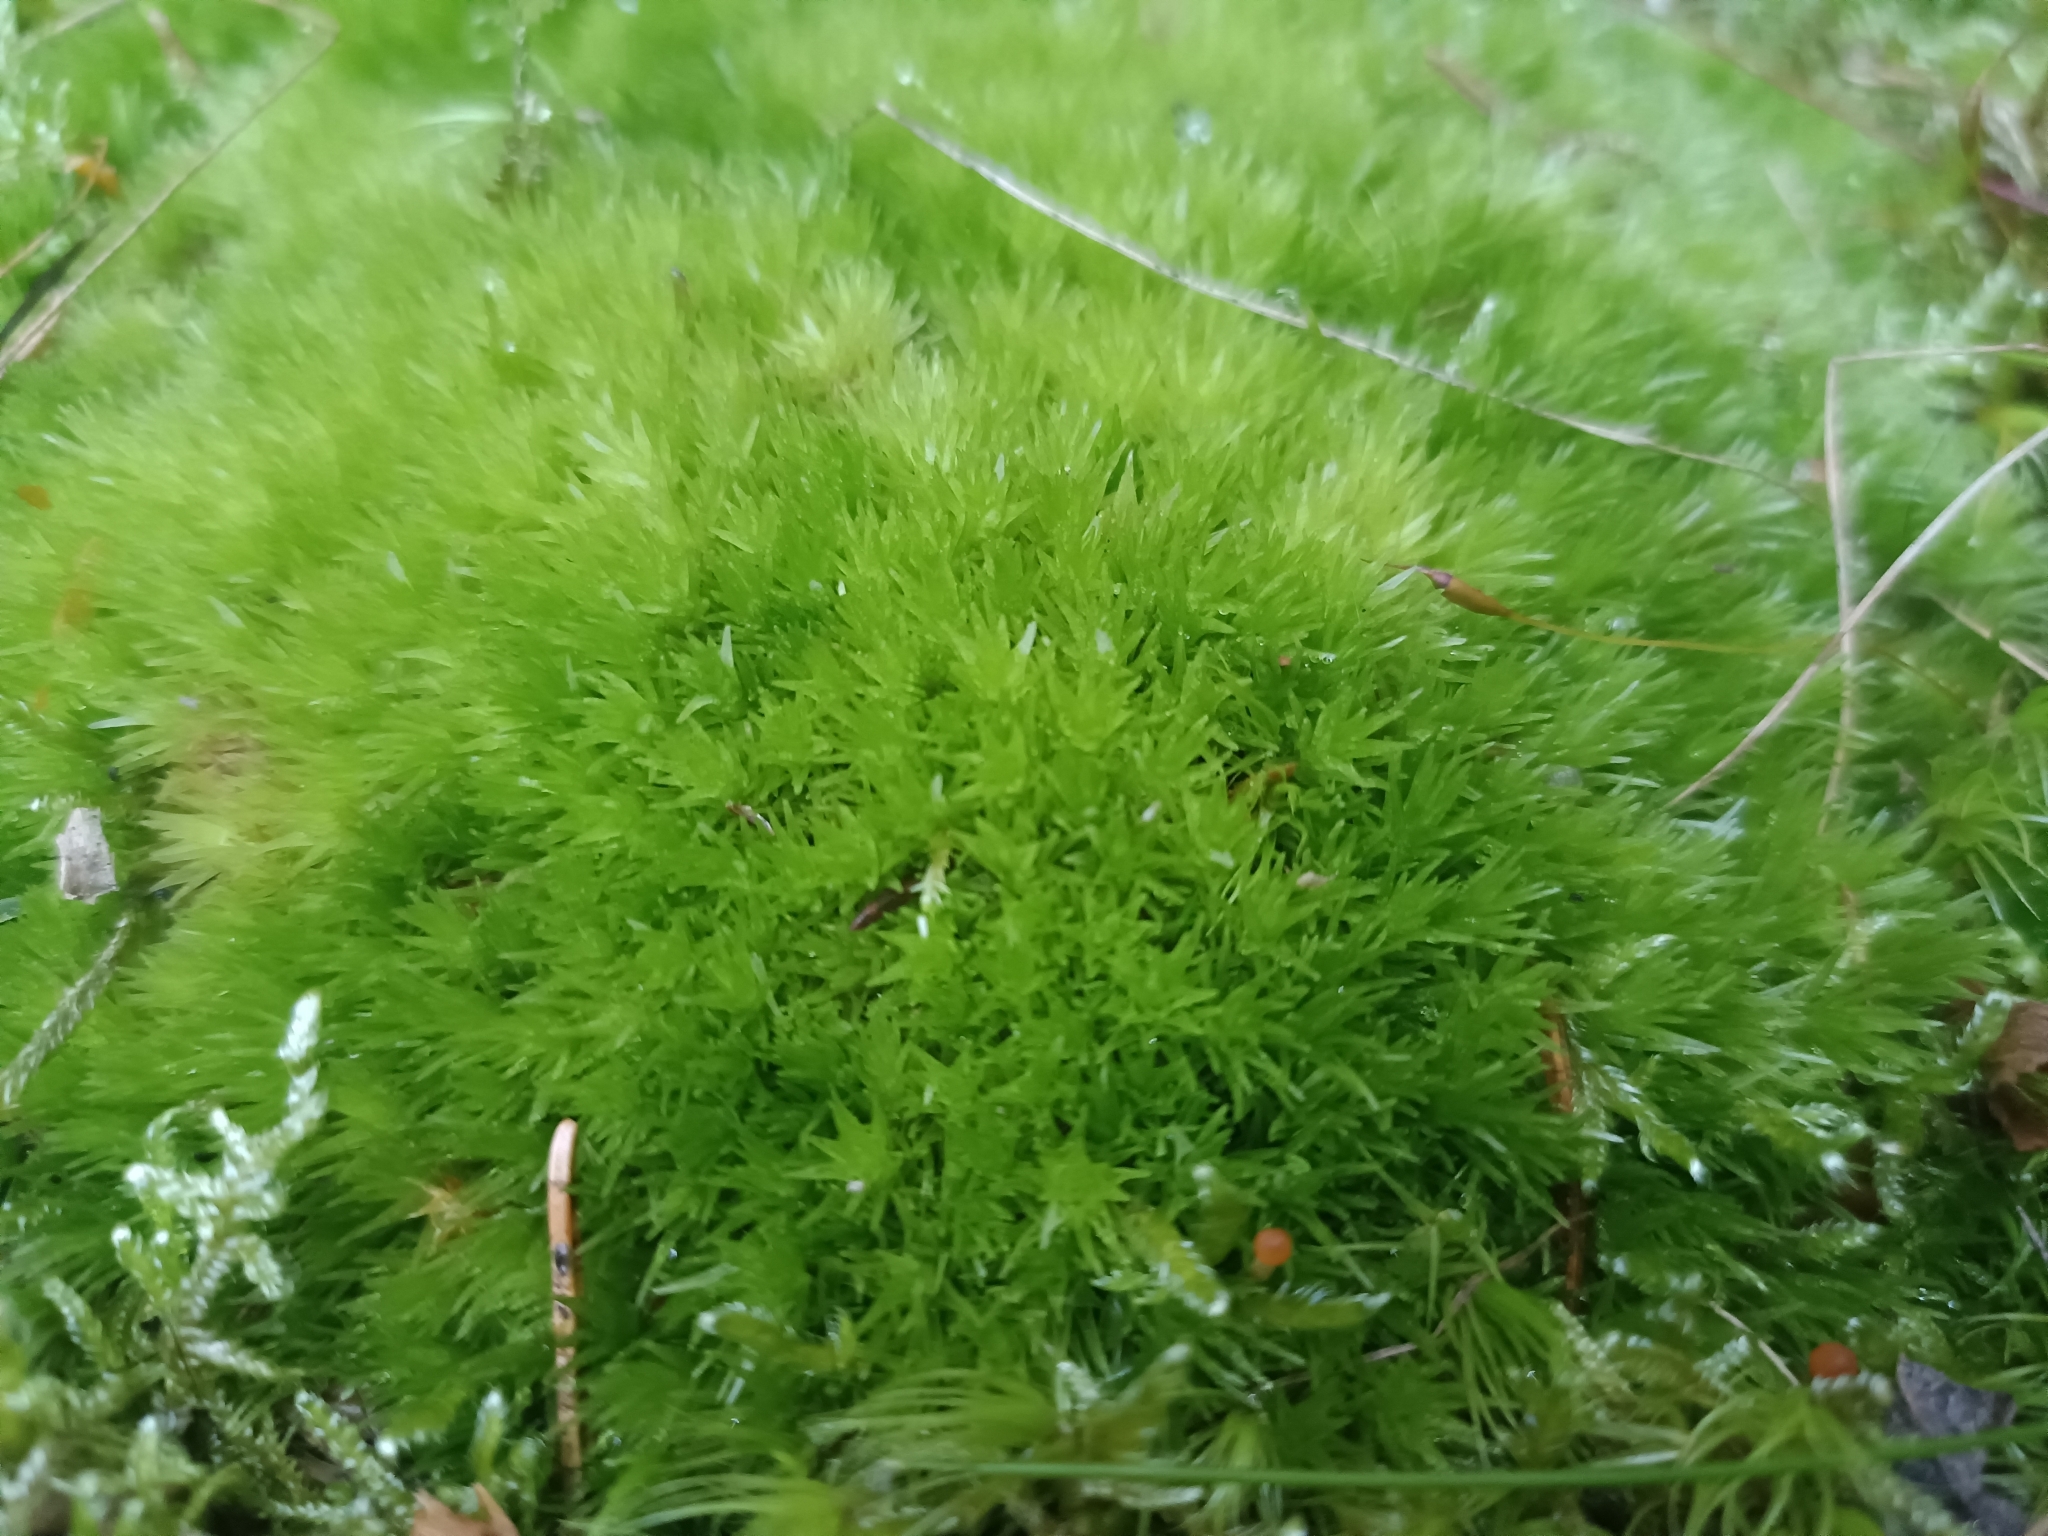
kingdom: Plantae
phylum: Bryophyta
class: Bryopsida
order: Dicranales
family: Leucobryaceae
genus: Leucobryum
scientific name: Leucobryum glaucum
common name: Large white-moss
